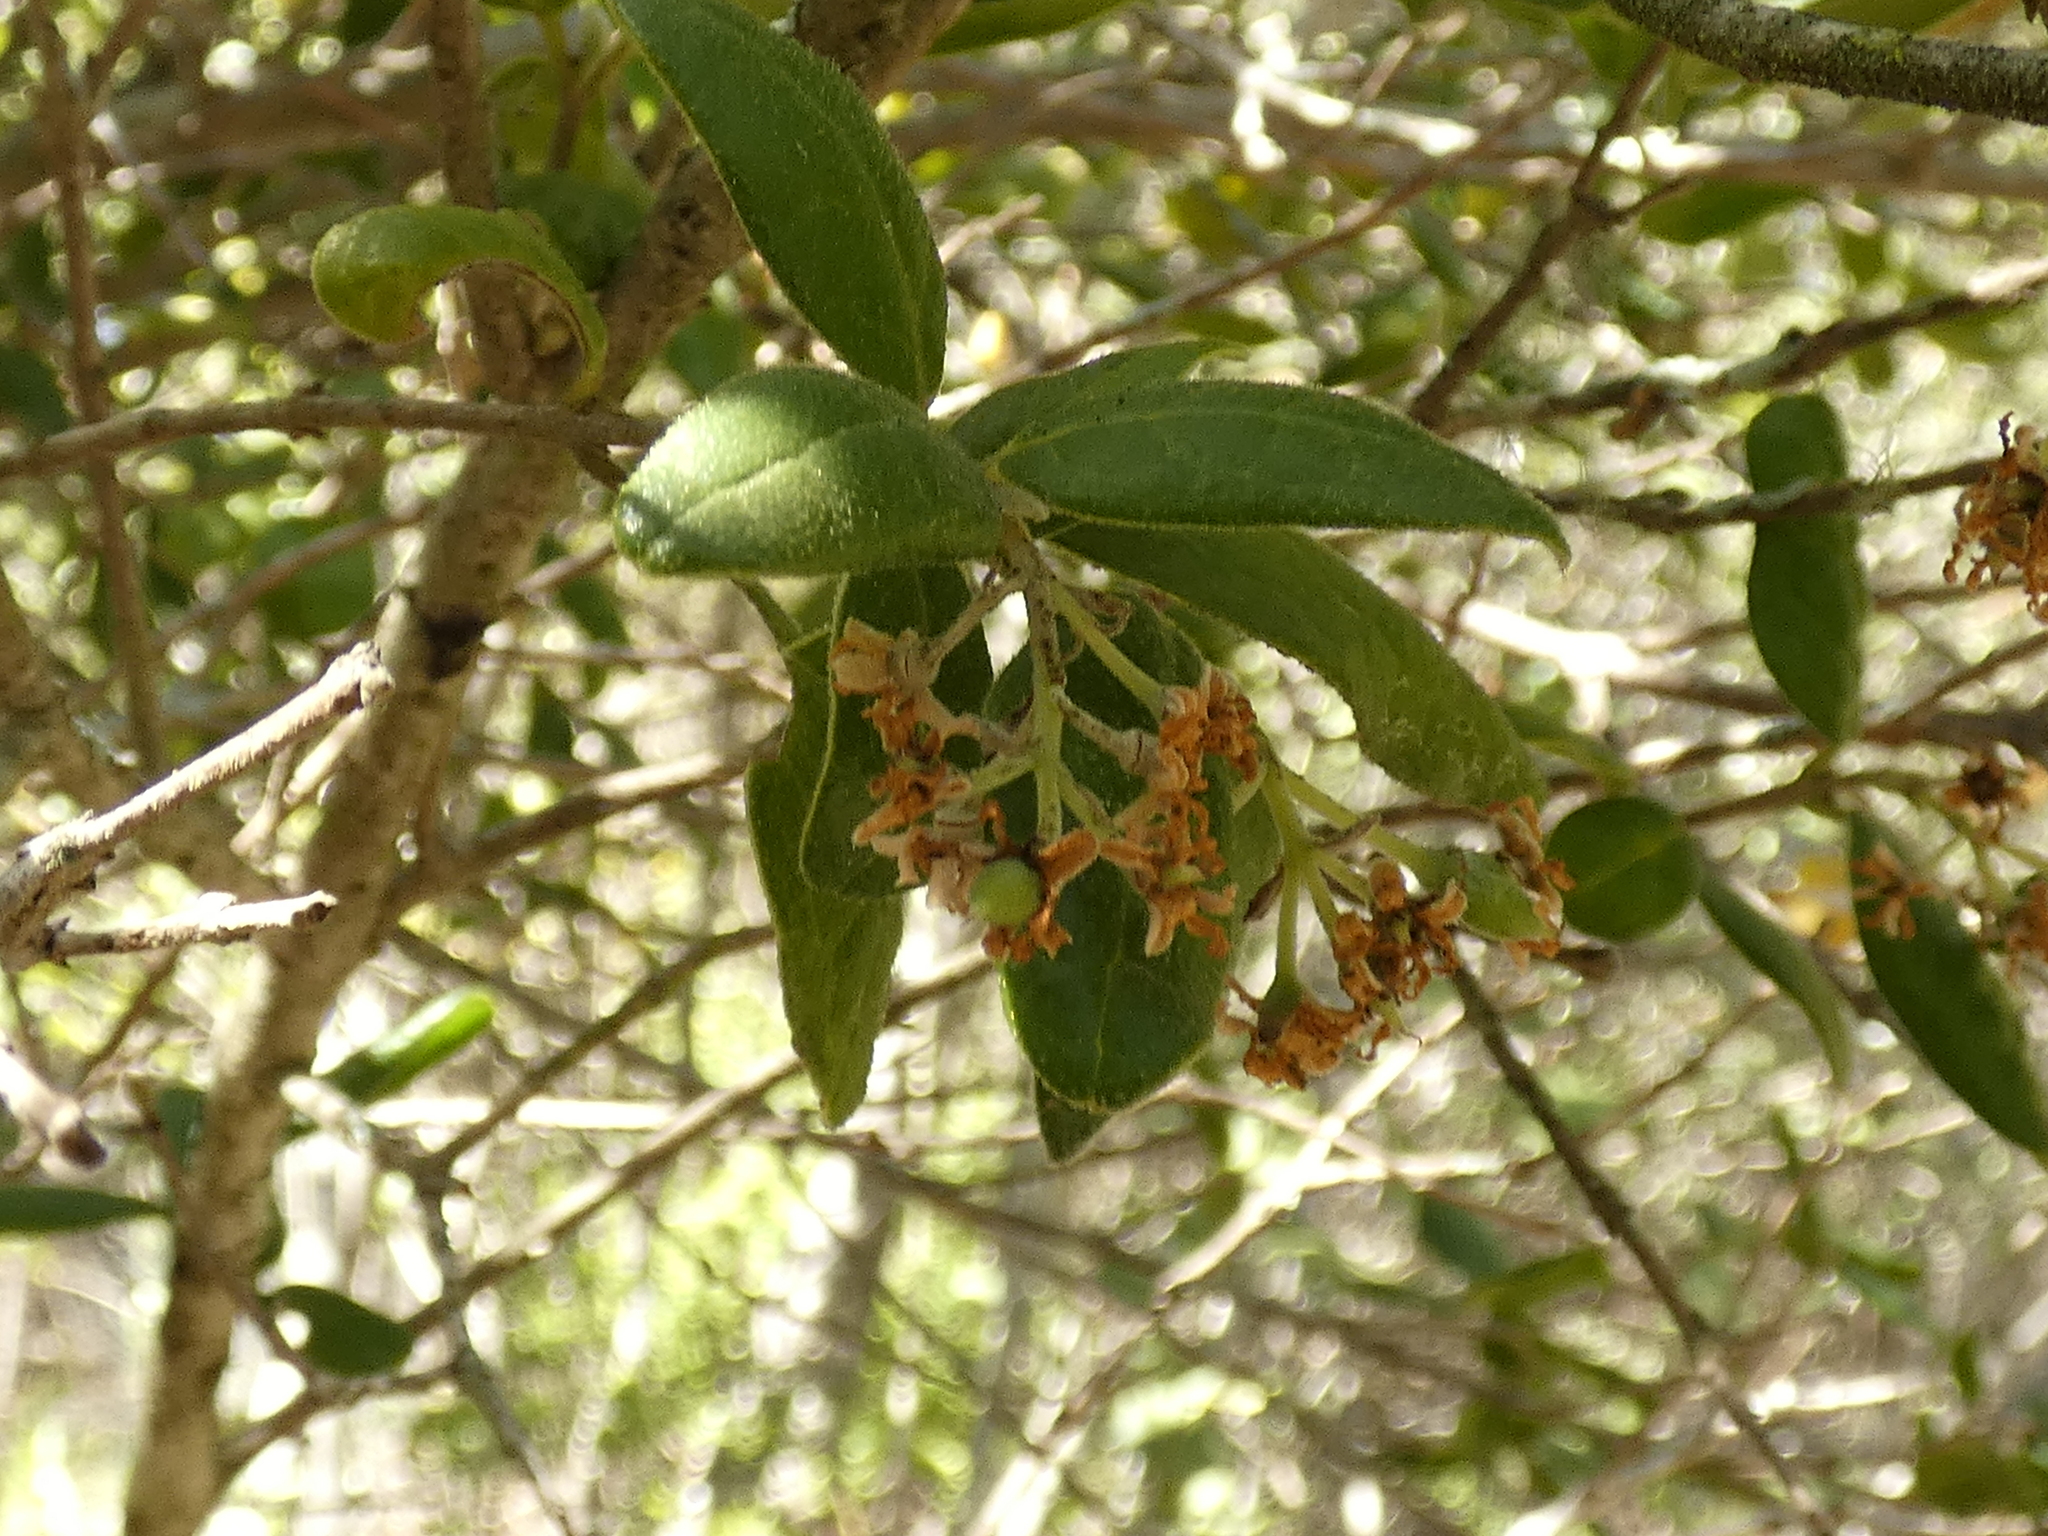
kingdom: Plantae
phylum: Tracheophyta
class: Magnoliopsida
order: Laurales
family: Monimiaceae
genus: Peumus
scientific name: Peumus boldus
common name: Boldo
